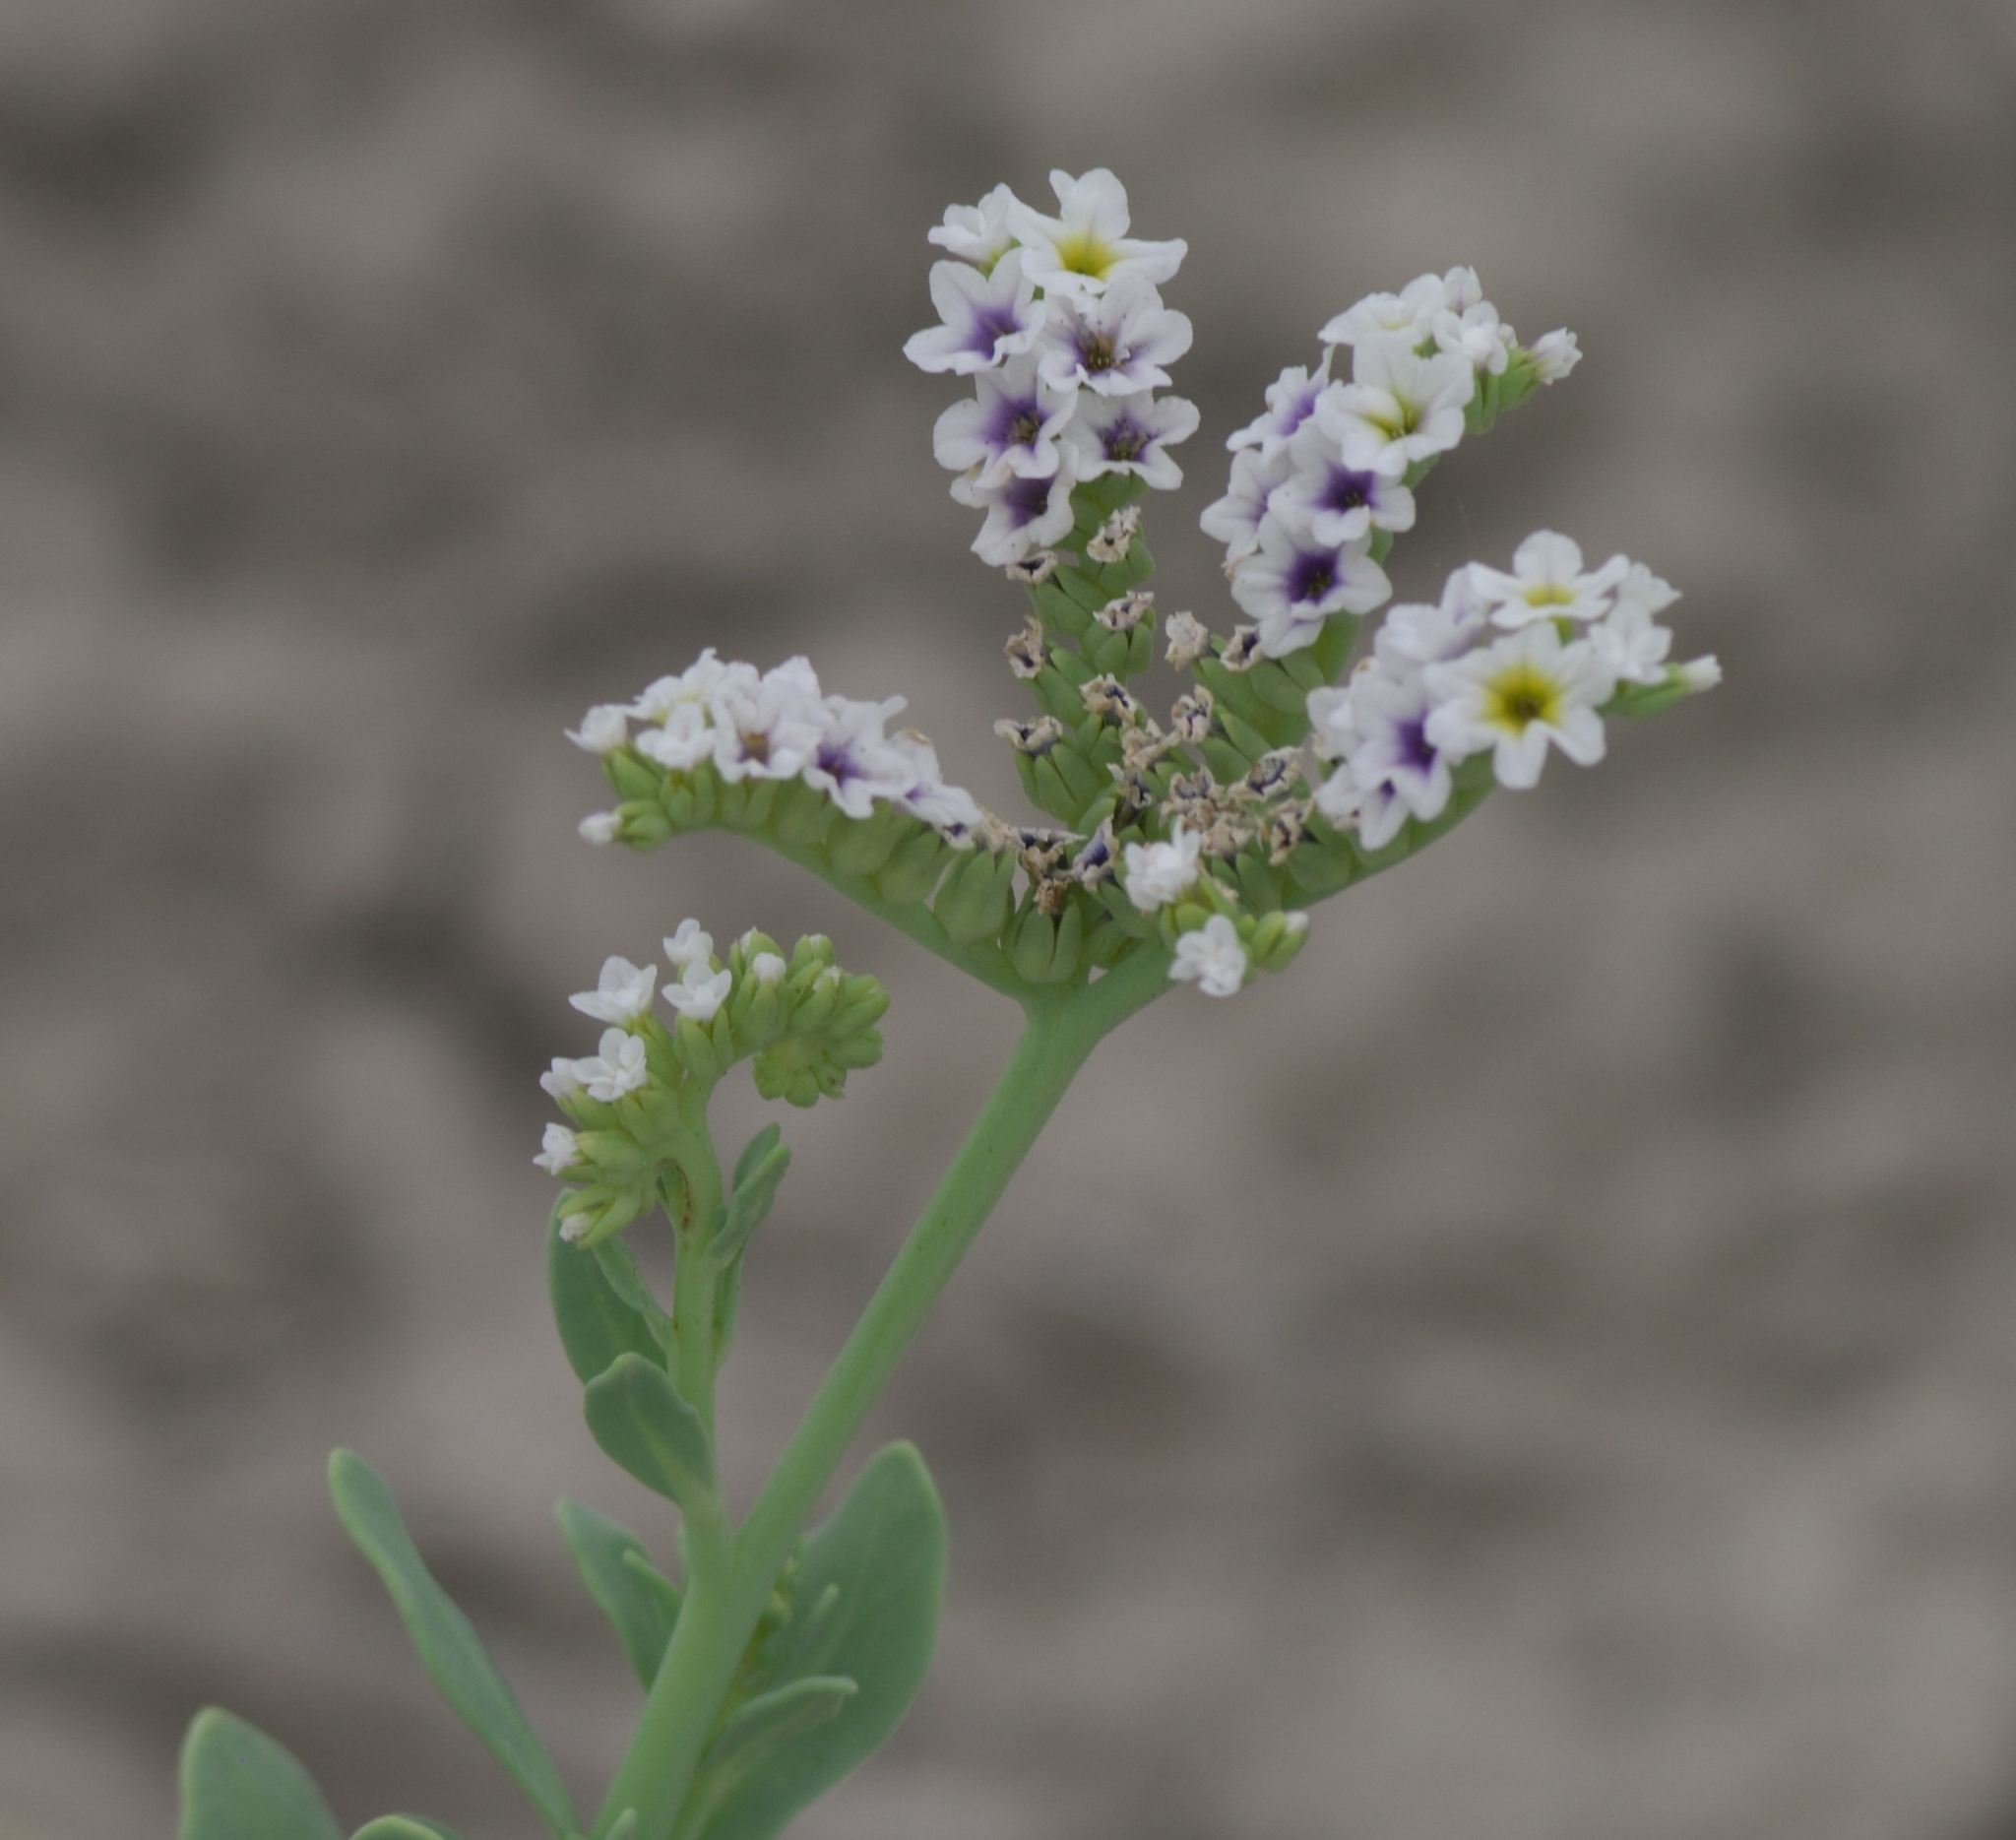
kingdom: Plantae
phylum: Tracheophyta
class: Magnoliopsida
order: Boraginales
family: Heliotropiaceae
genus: Heliotropium
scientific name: Heliotropium curassavicum
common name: Seaside heliotrope
